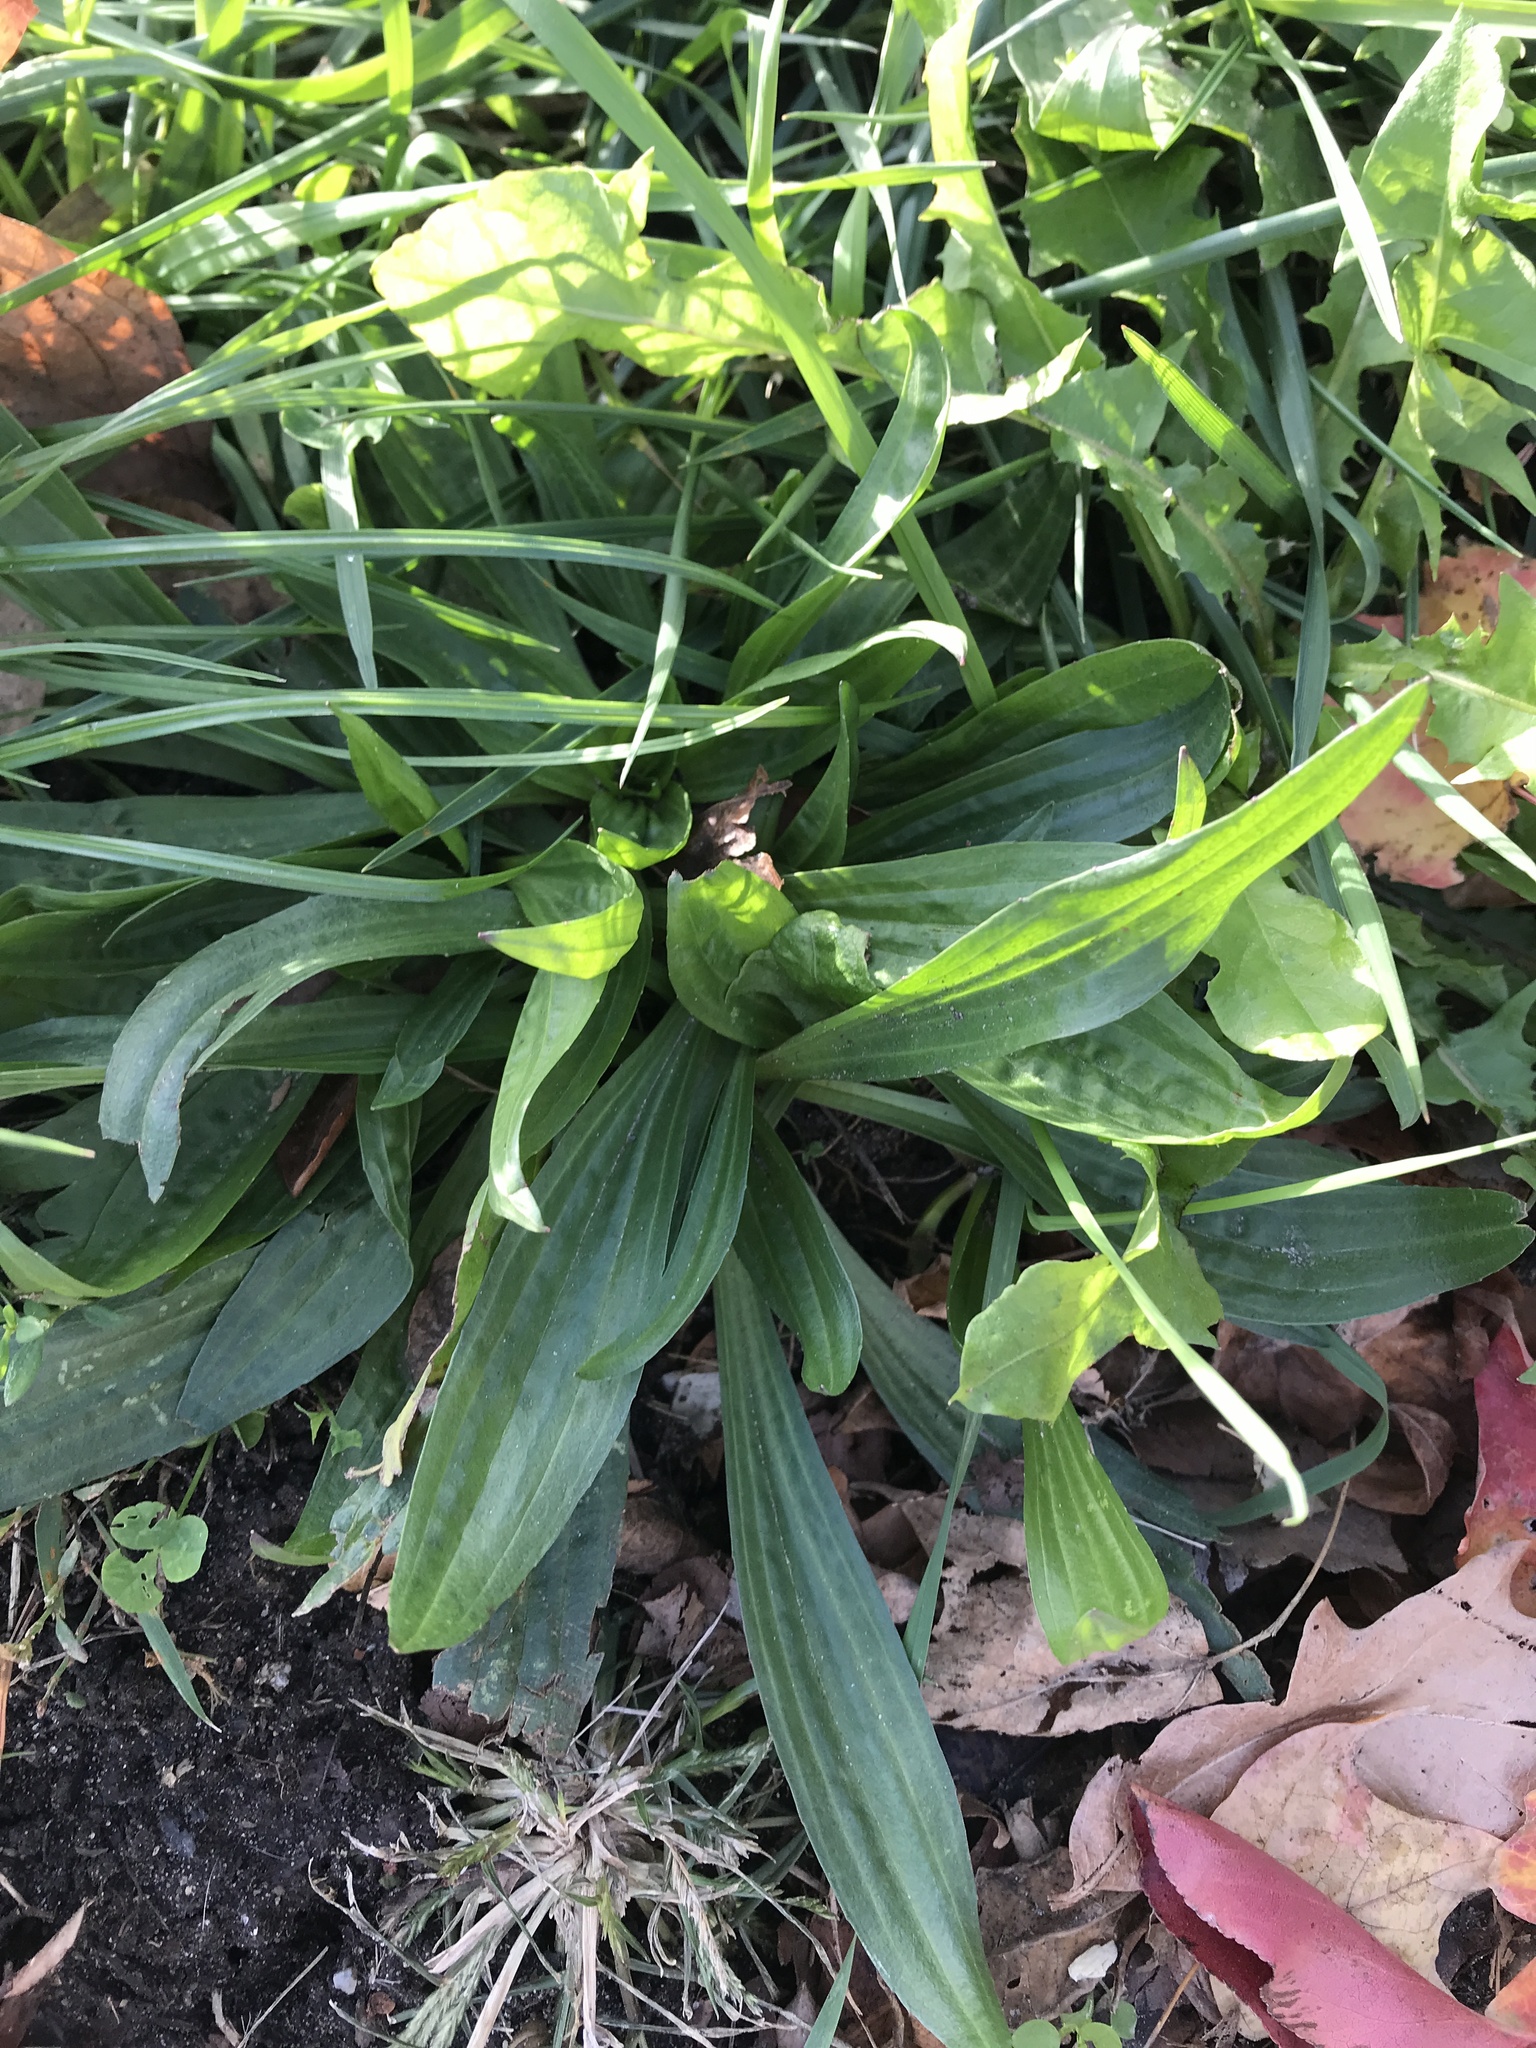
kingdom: Plantae
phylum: Tracheophyta
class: Magnoliopsida
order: Lamiales
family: Plantaginaceae
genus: Plantago
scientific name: Plantago lanceolata
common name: Ribwort plantain
